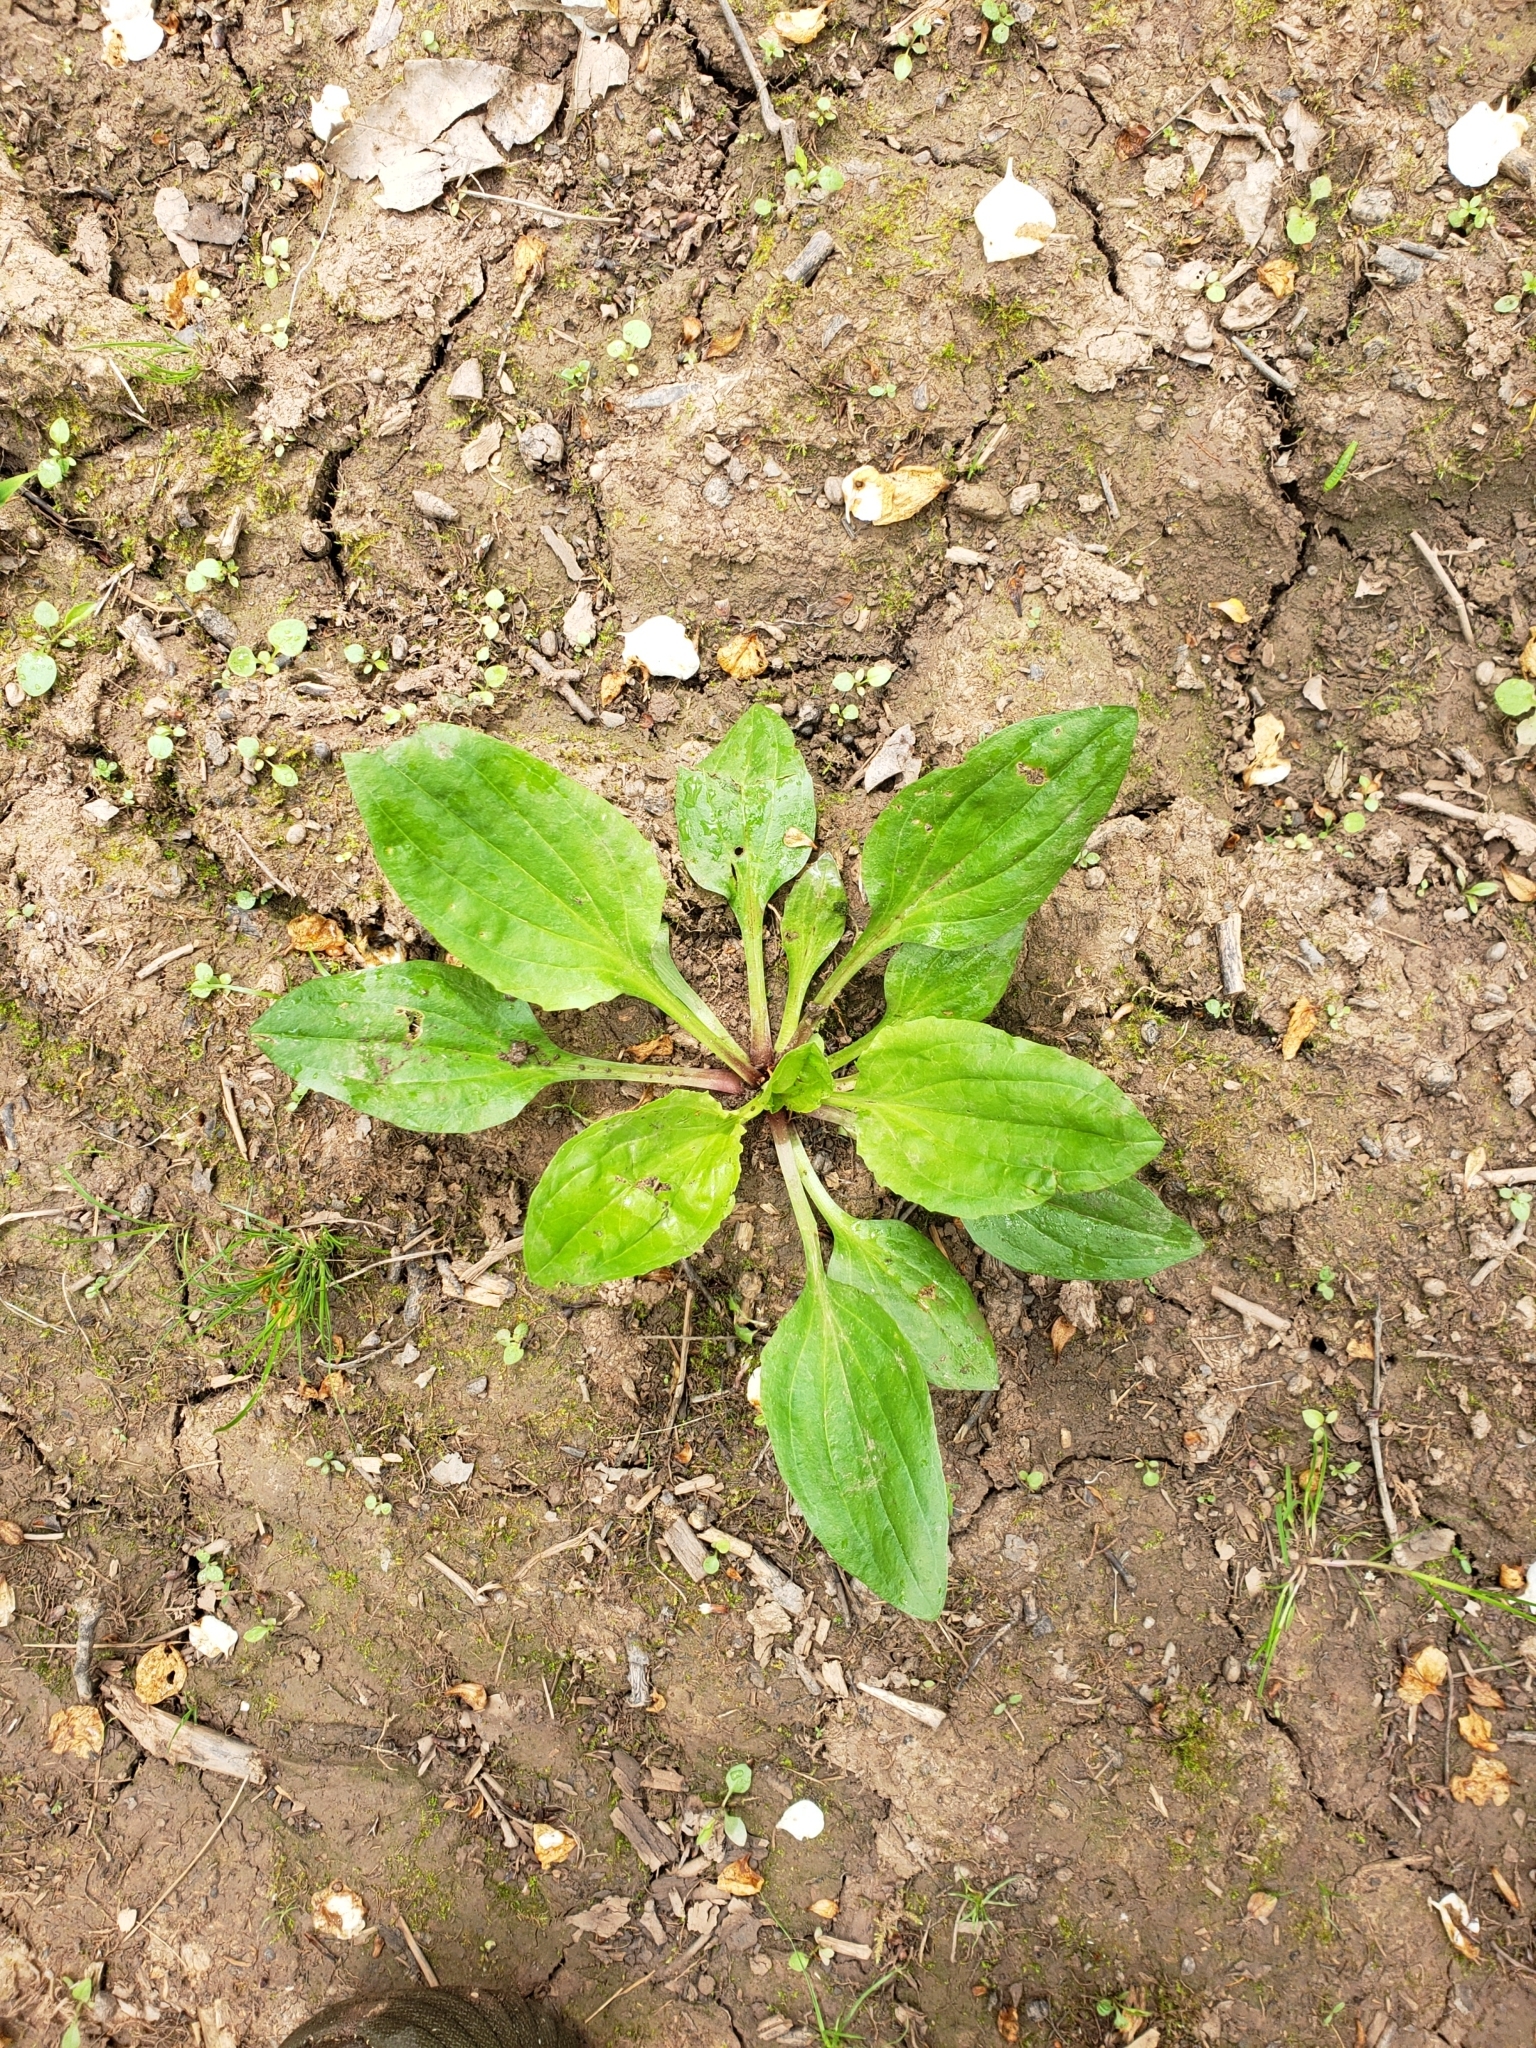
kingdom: Plantae
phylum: Tracheophyta
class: Magnoliopsida
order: Lamiales
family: Plantaginaceae
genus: Plantago
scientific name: Plantago rugelii
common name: American plantain
